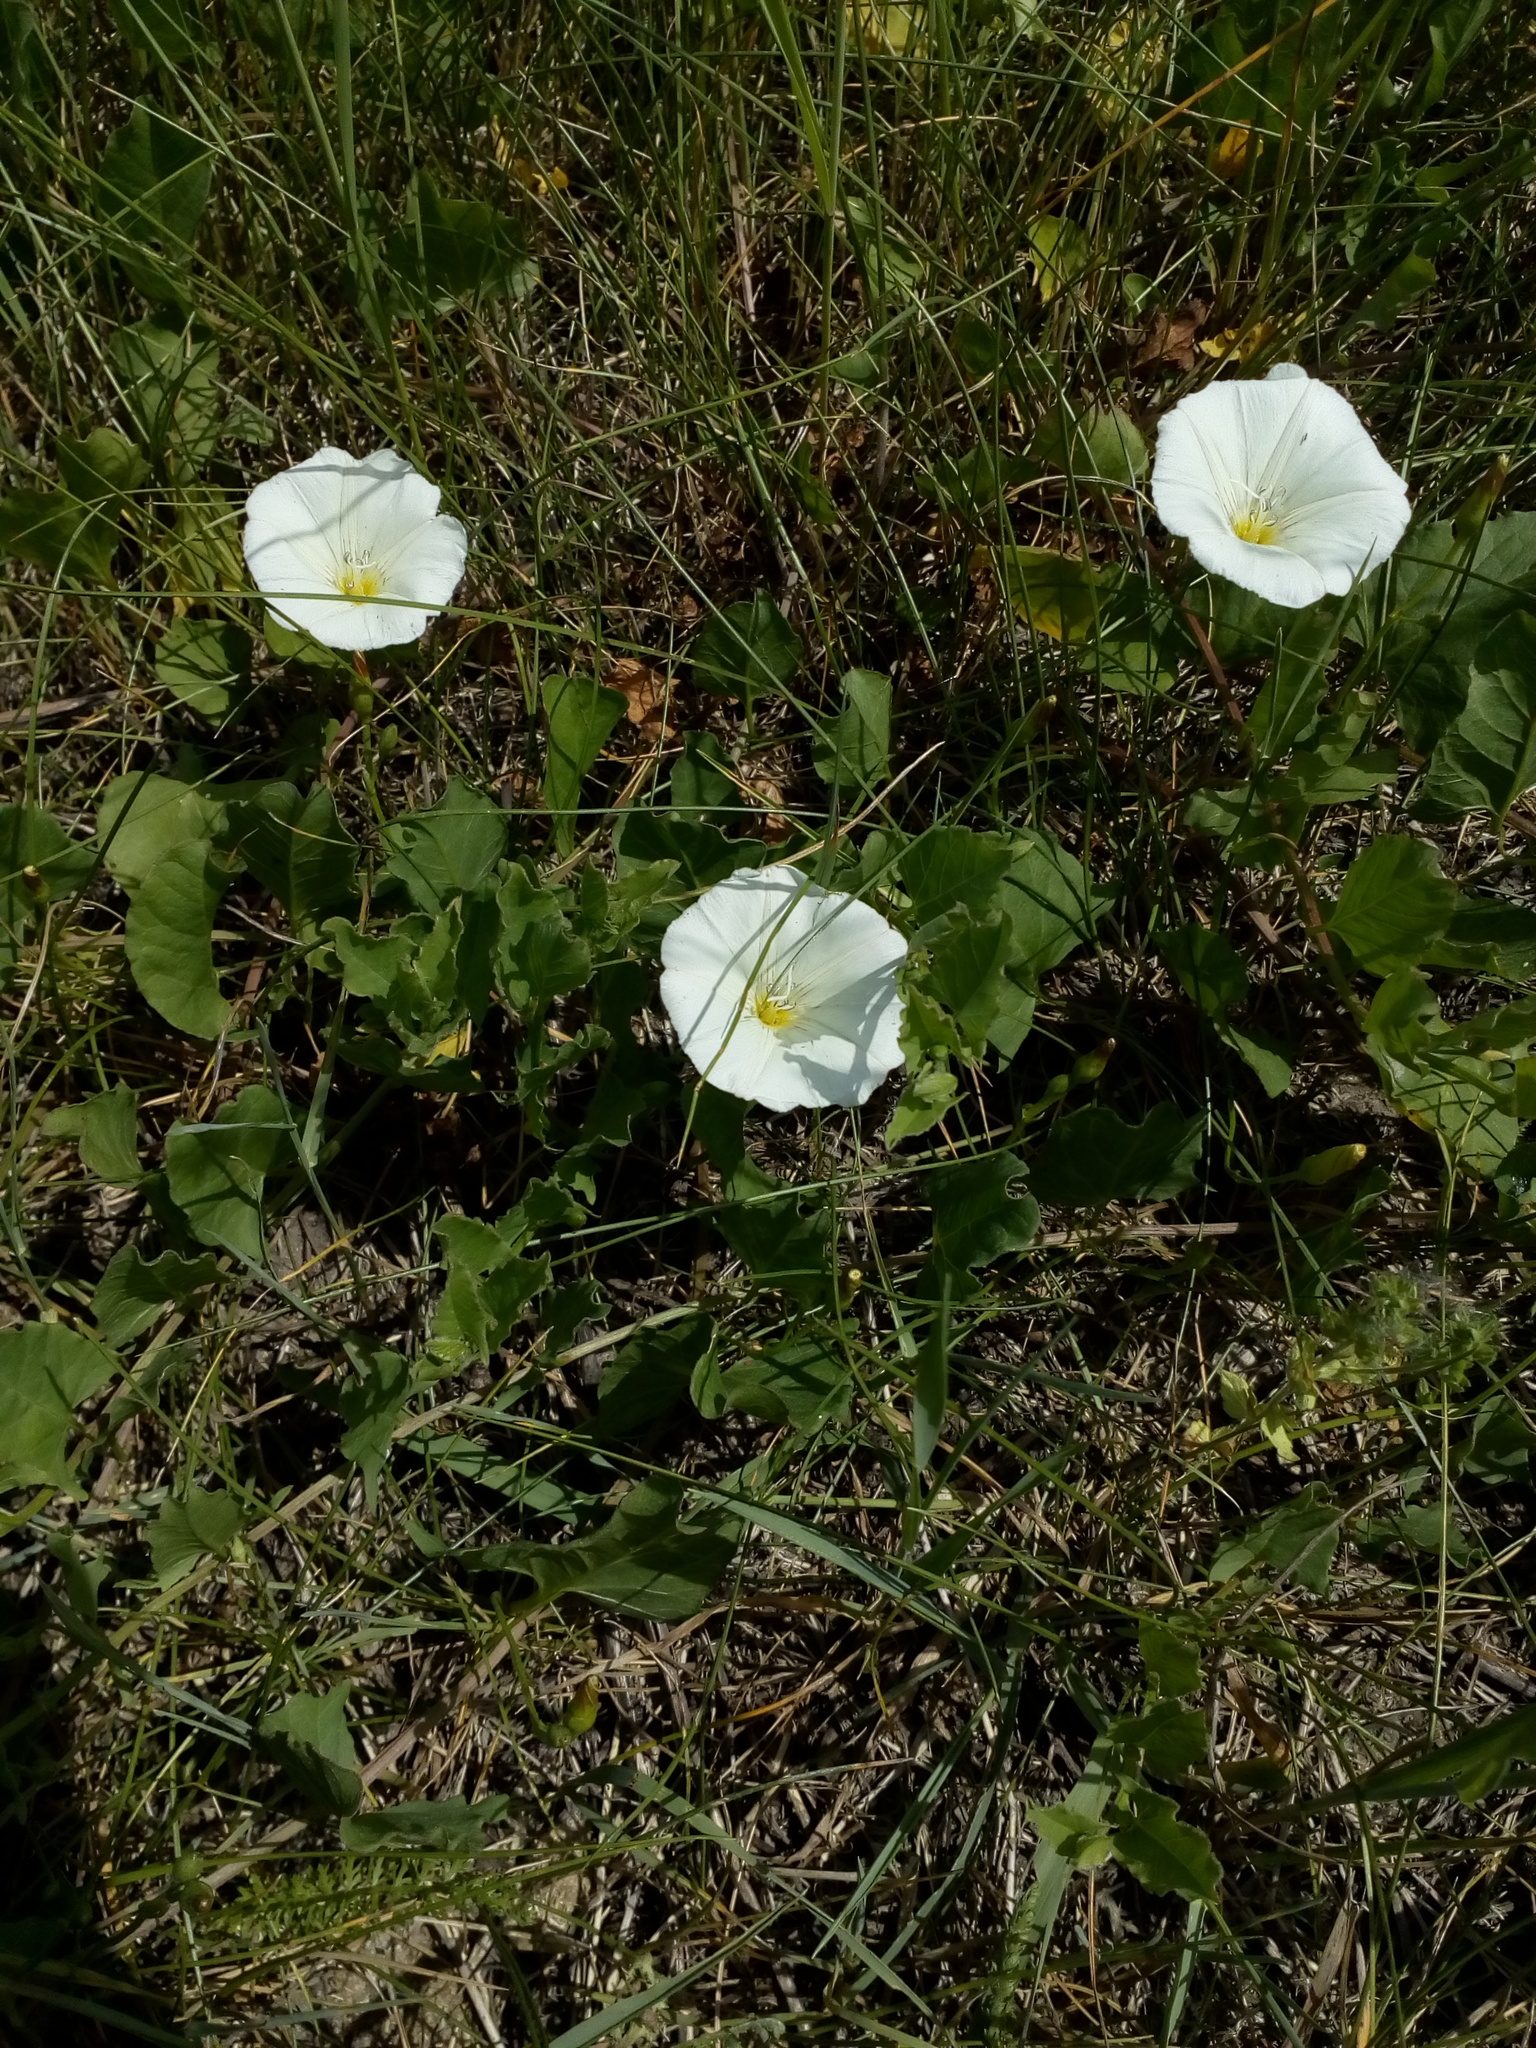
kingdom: Plantae
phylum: Tracheophyta
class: Magnoliopsida
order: Solanales
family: Convolvulaceae
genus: Convolvulus
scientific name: Convolvulus arvensis
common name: Field bindweed
